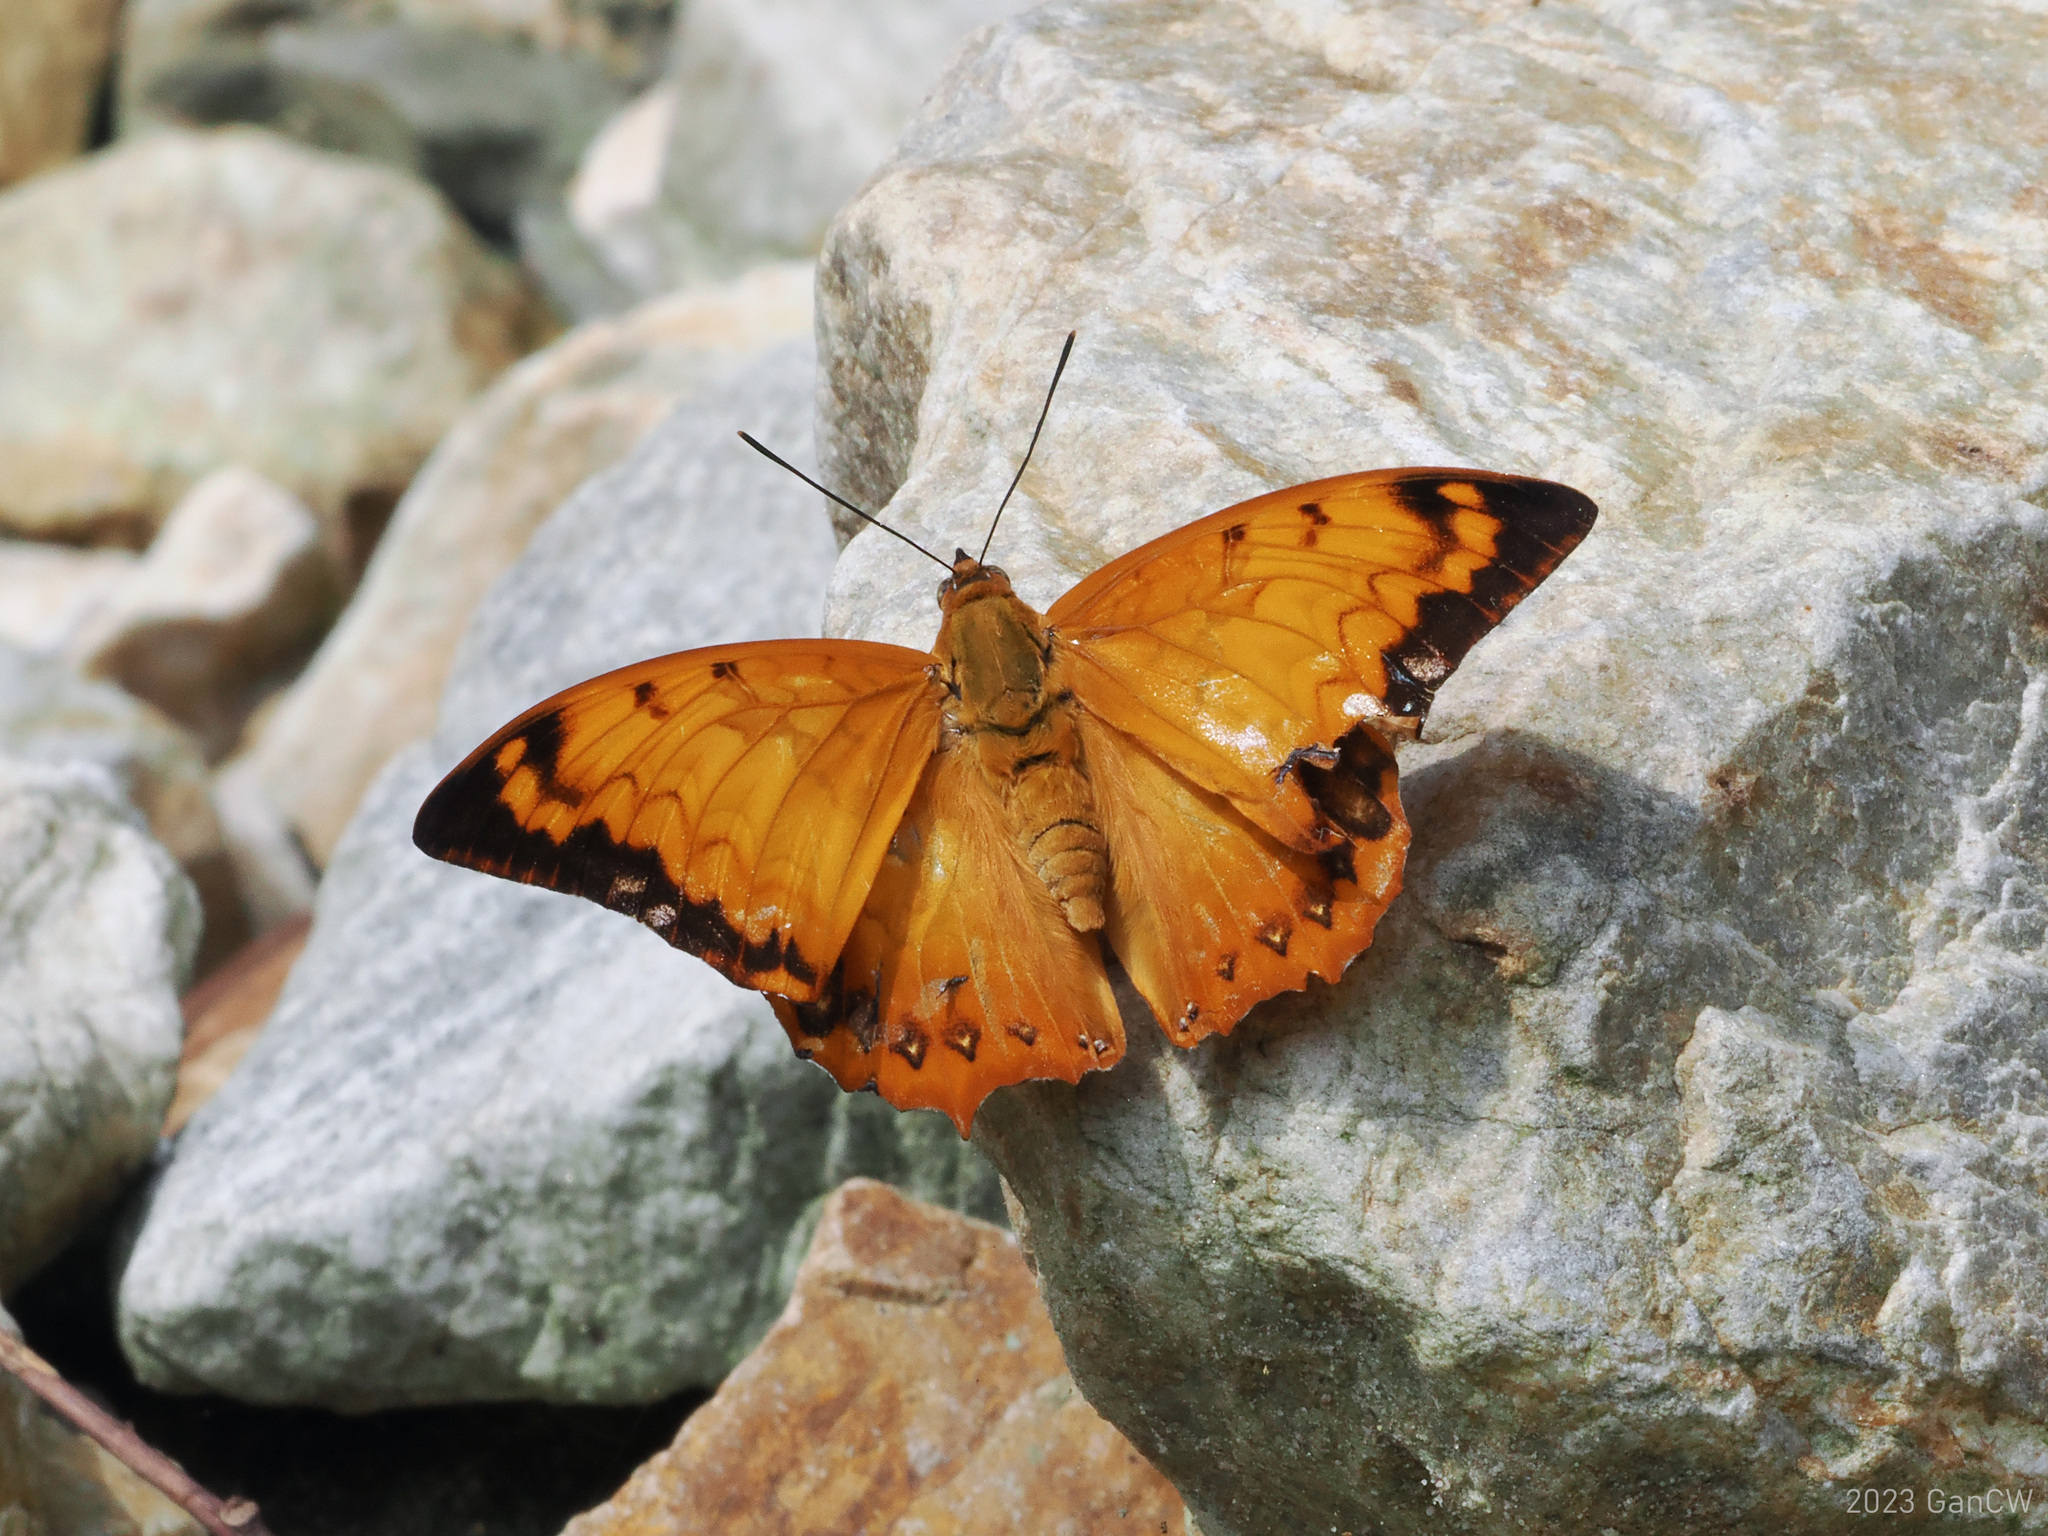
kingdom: Animalia
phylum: Arthropoda
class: Insecta
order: Lepidoptera
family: Nymphalidae
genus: Charaxes
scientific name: Charaxes kahruba
